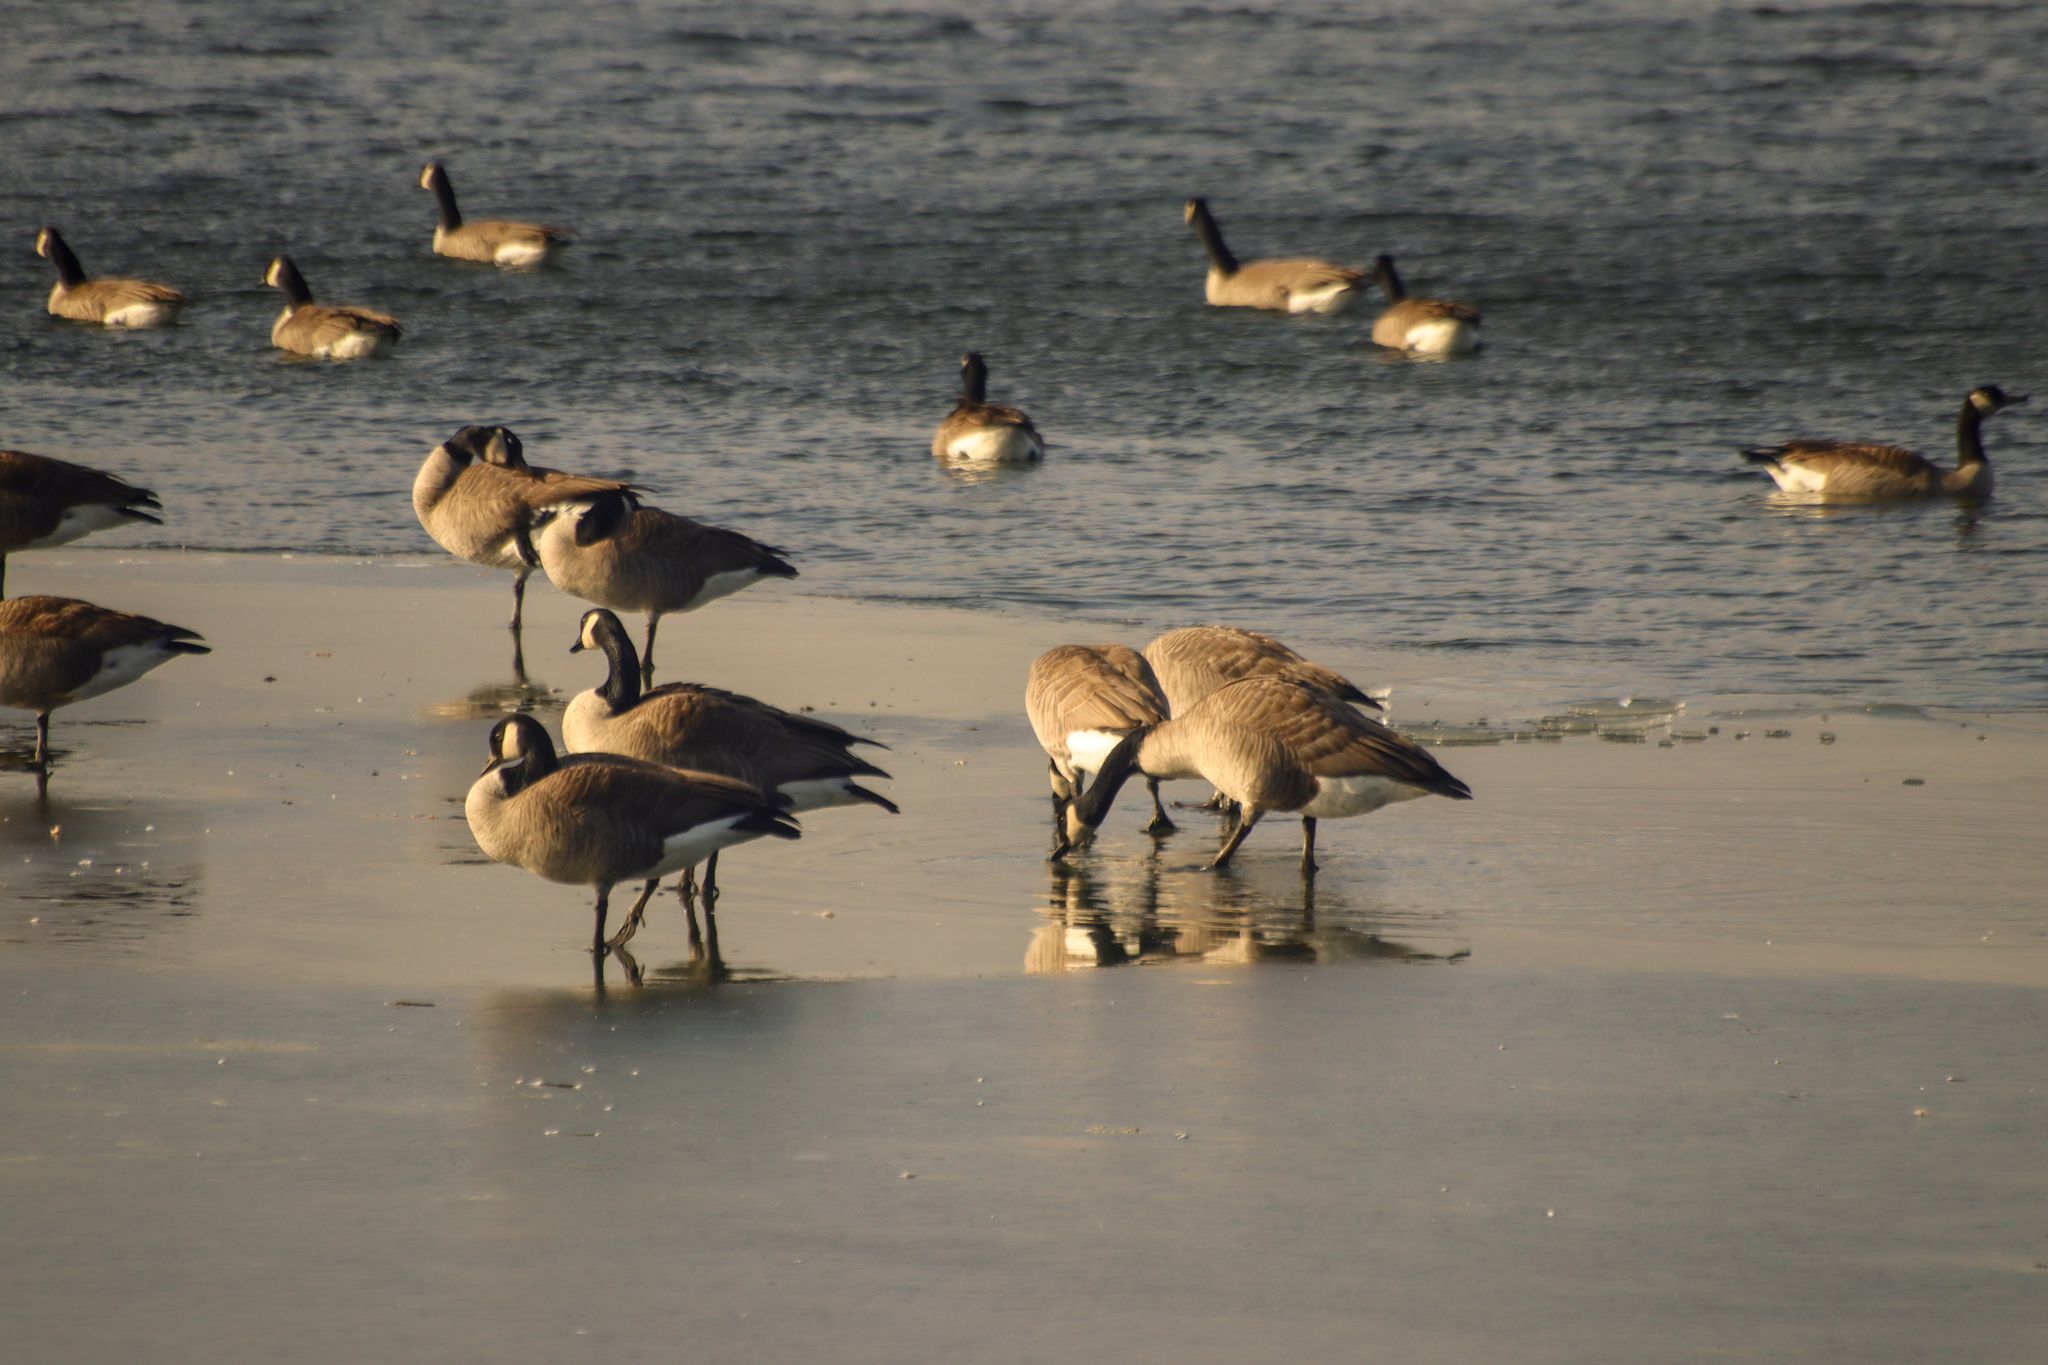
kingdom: Animalia
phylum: Chordata
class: Aves
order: Anseriformes
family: Anatidae
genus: Branta
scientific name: Branta canadensis
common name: Canada goose
